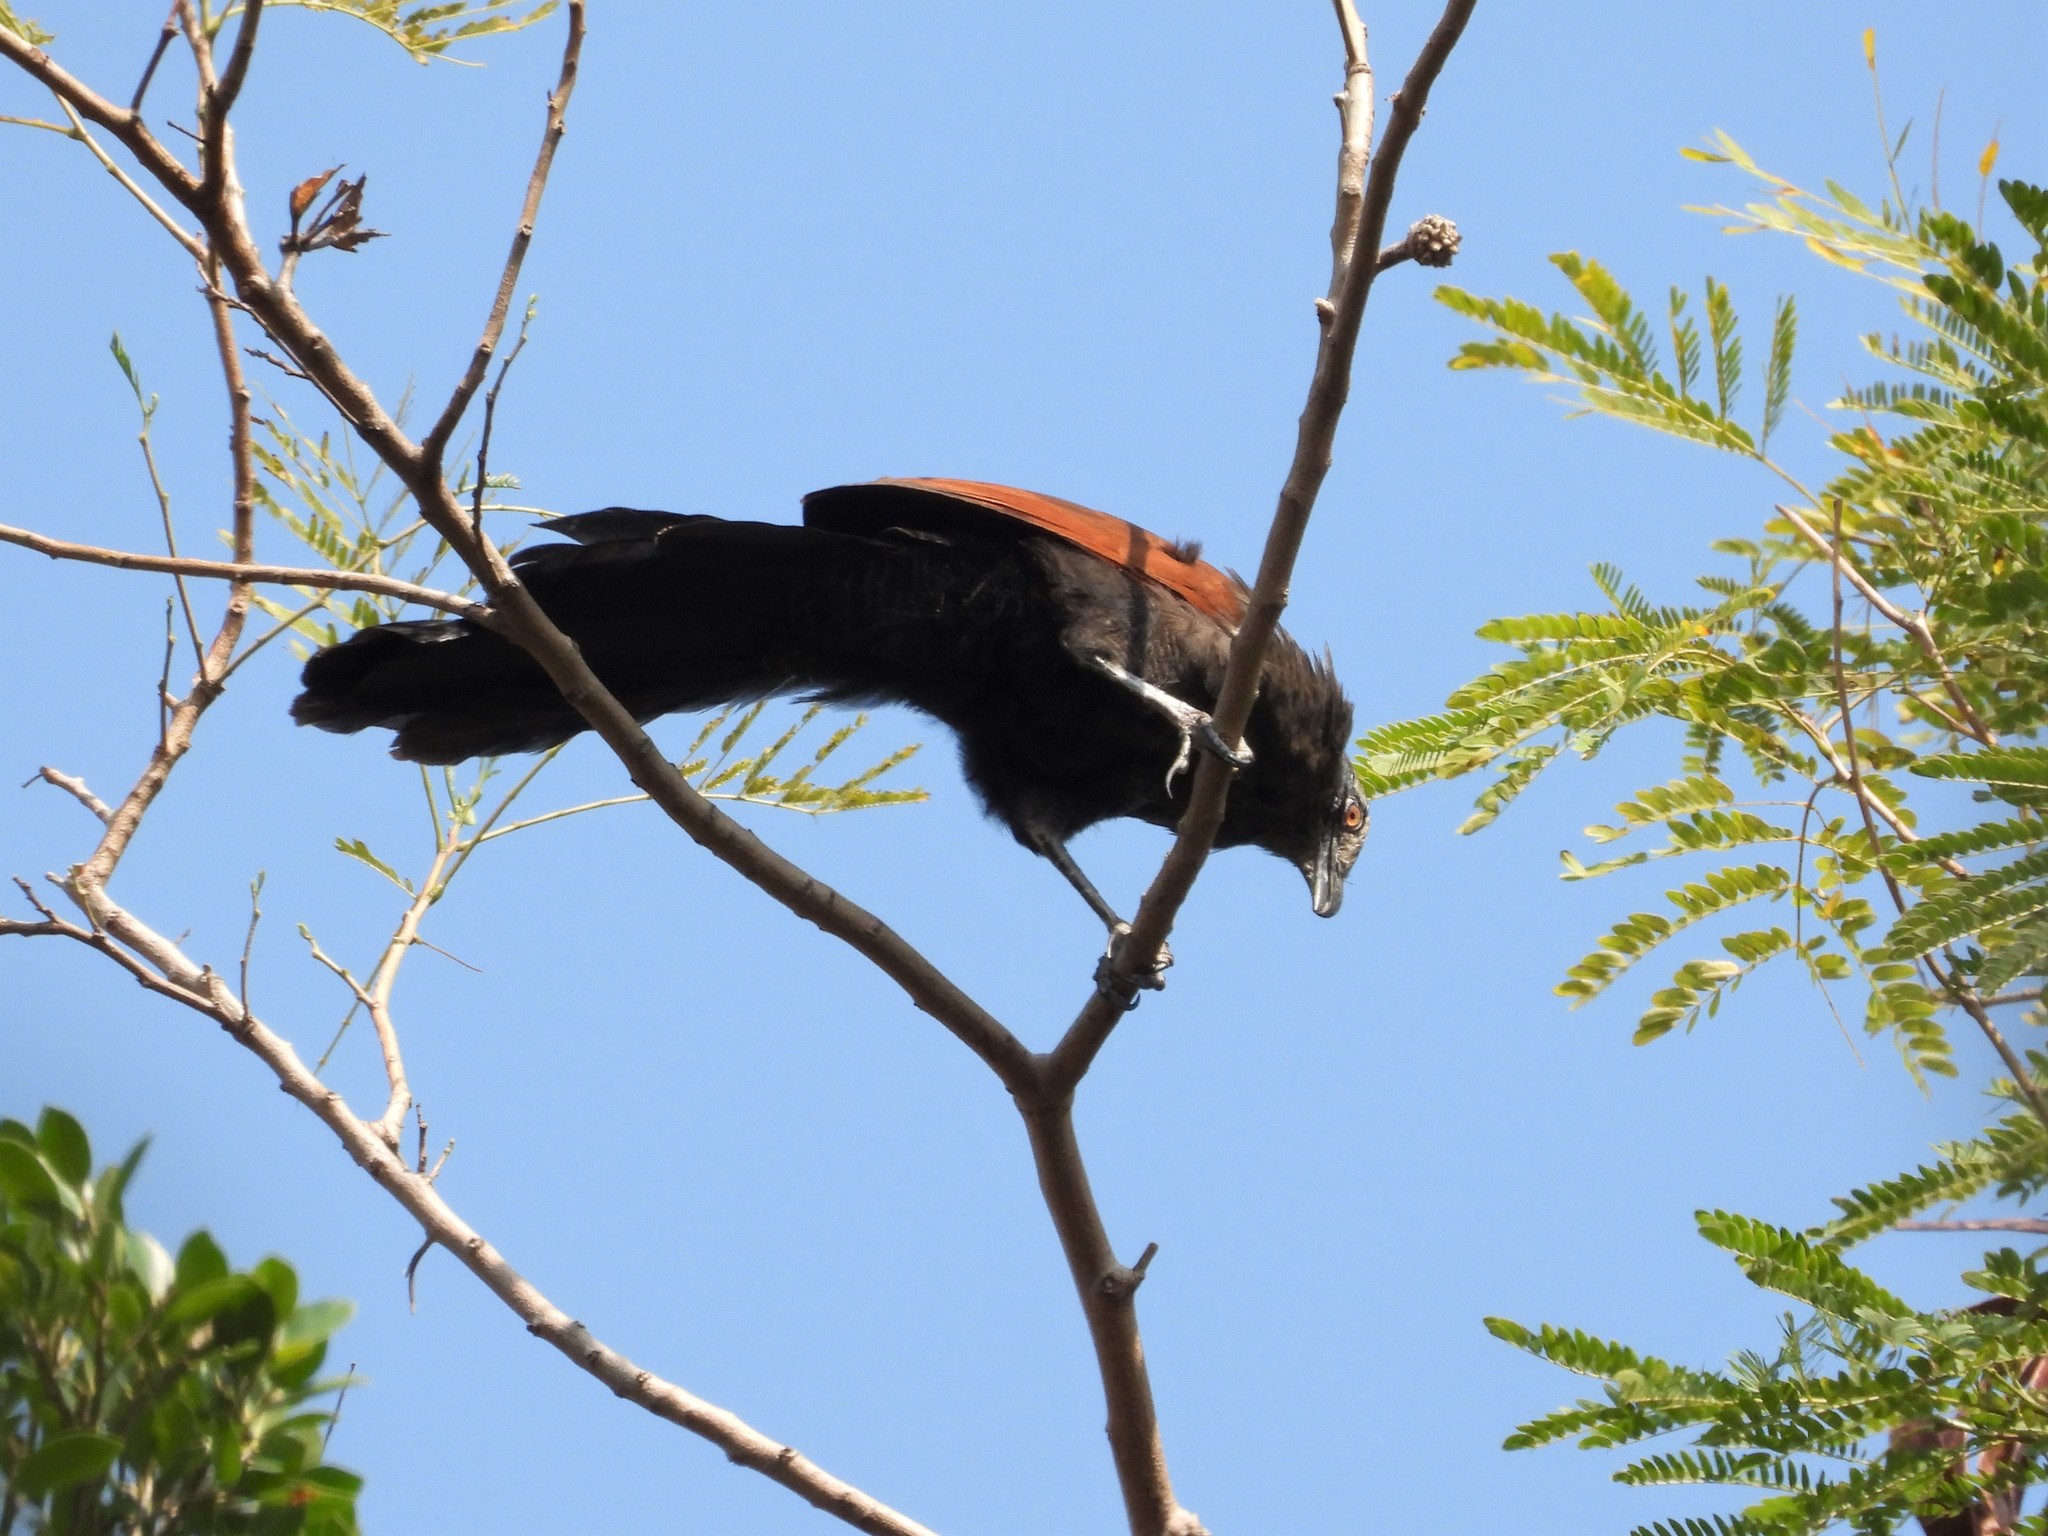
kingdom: Animalia
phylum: Chordata
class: Aves
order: Cuculiformes
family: Cuculidae
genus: Centropus
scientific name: Centropus sinensis
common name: Greater coucal
